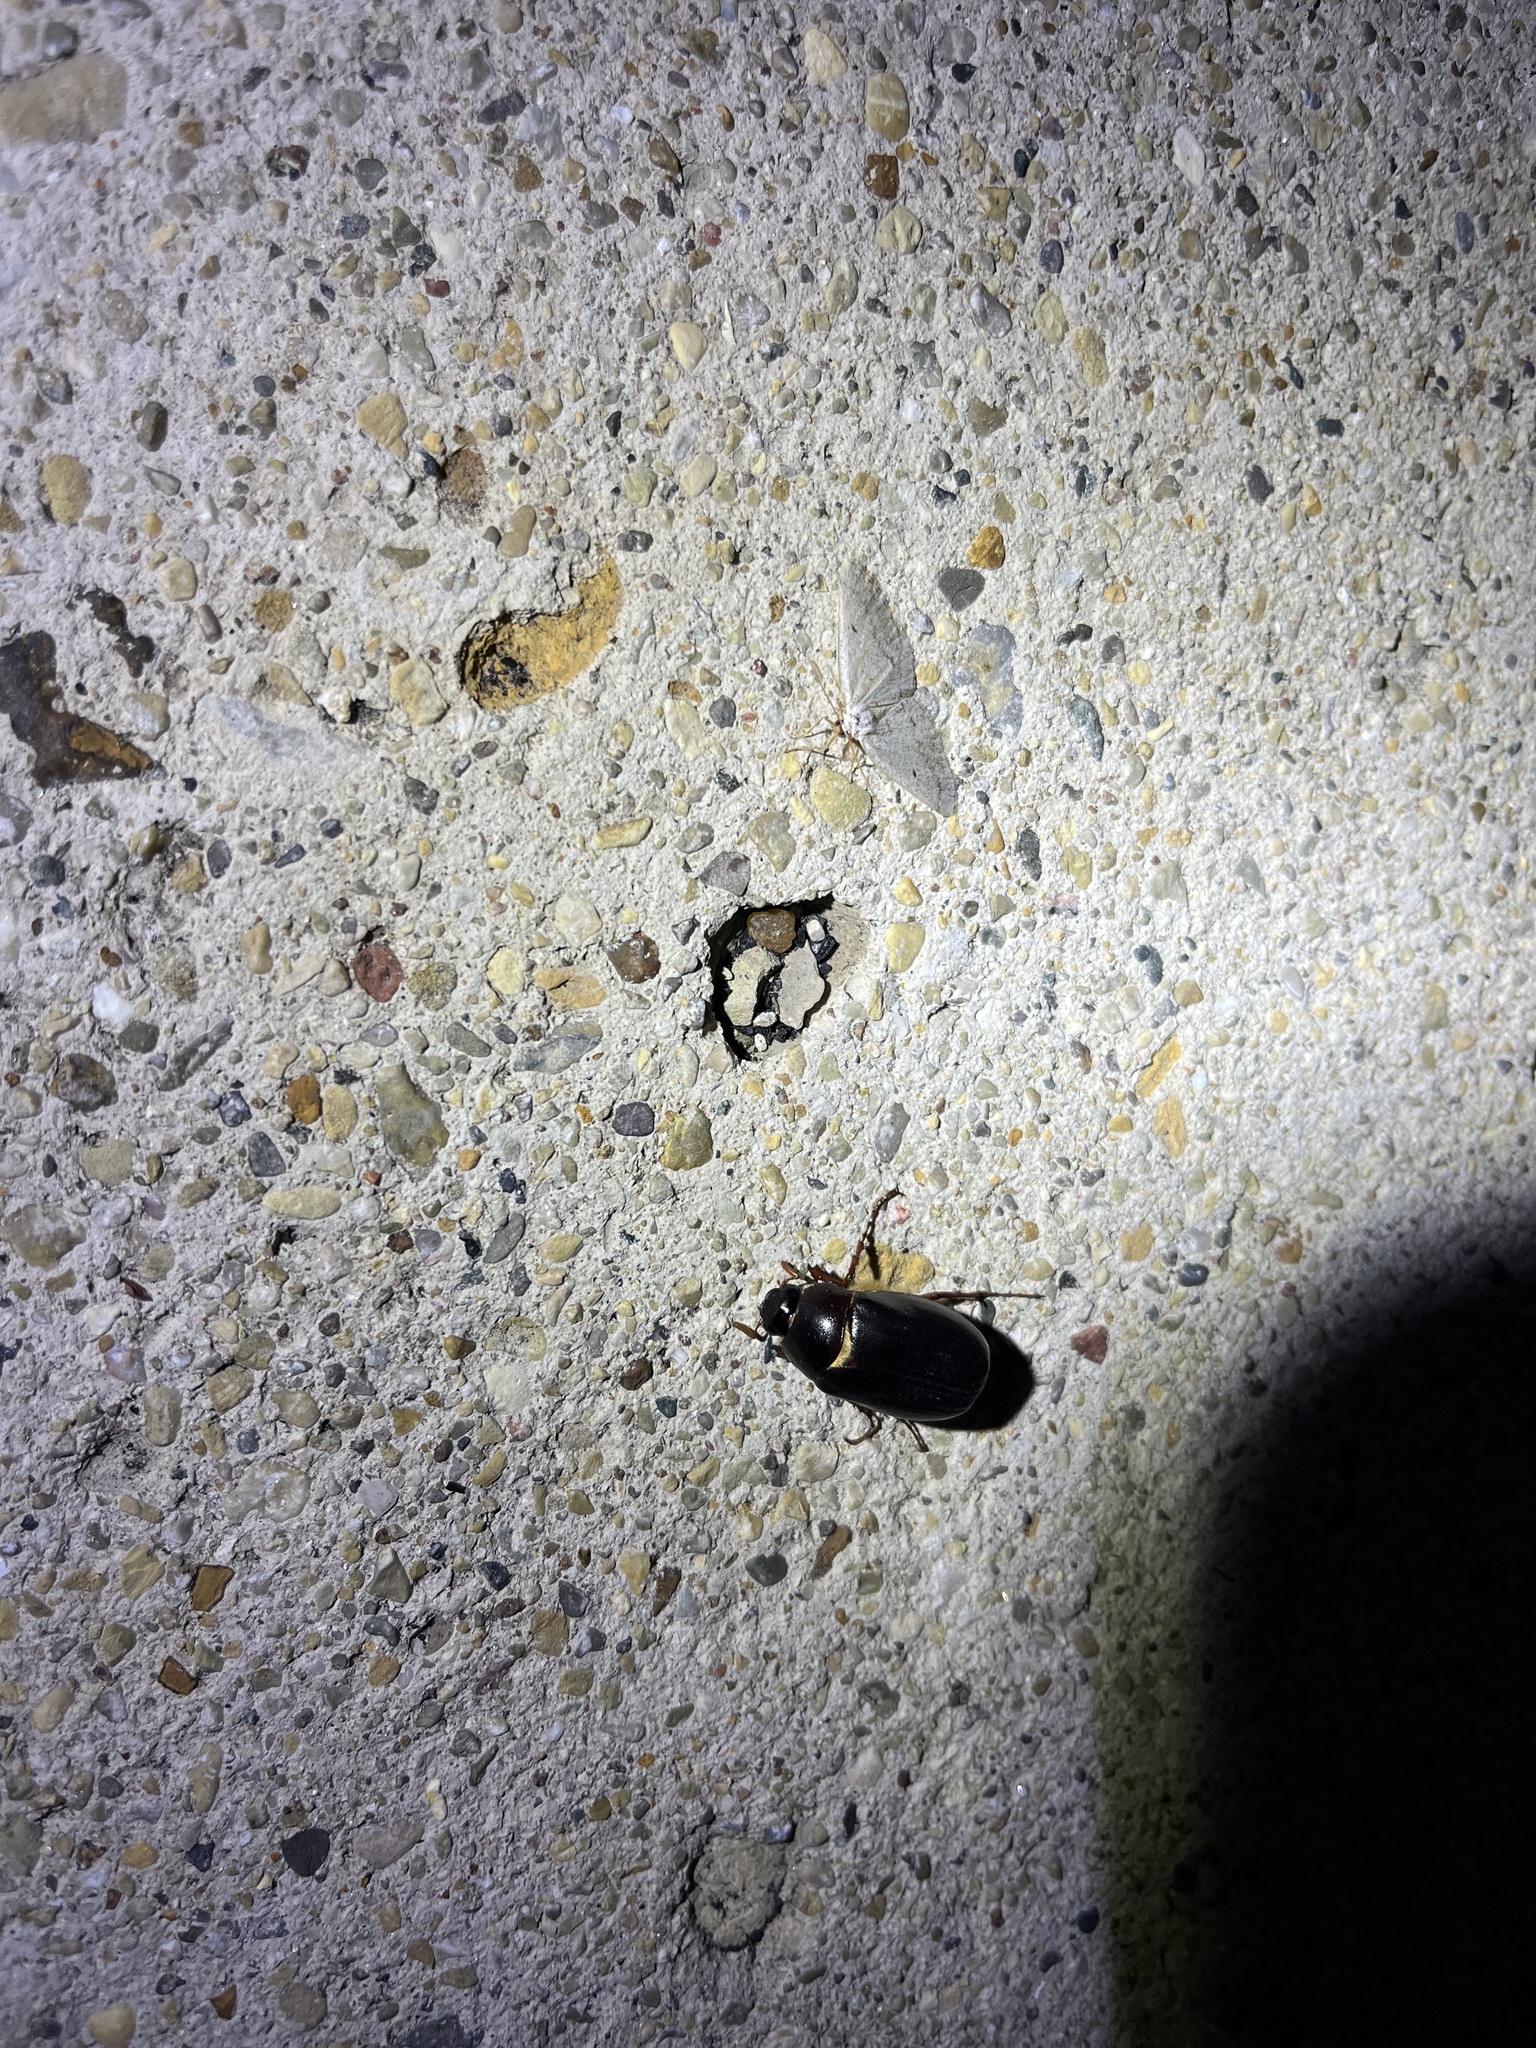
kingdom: Animalia
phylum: Arthropoda
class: Insecta
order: Coleoptera
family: Scarabaeidae
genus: Phyllophaga
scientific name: Phyllophaga anxia
